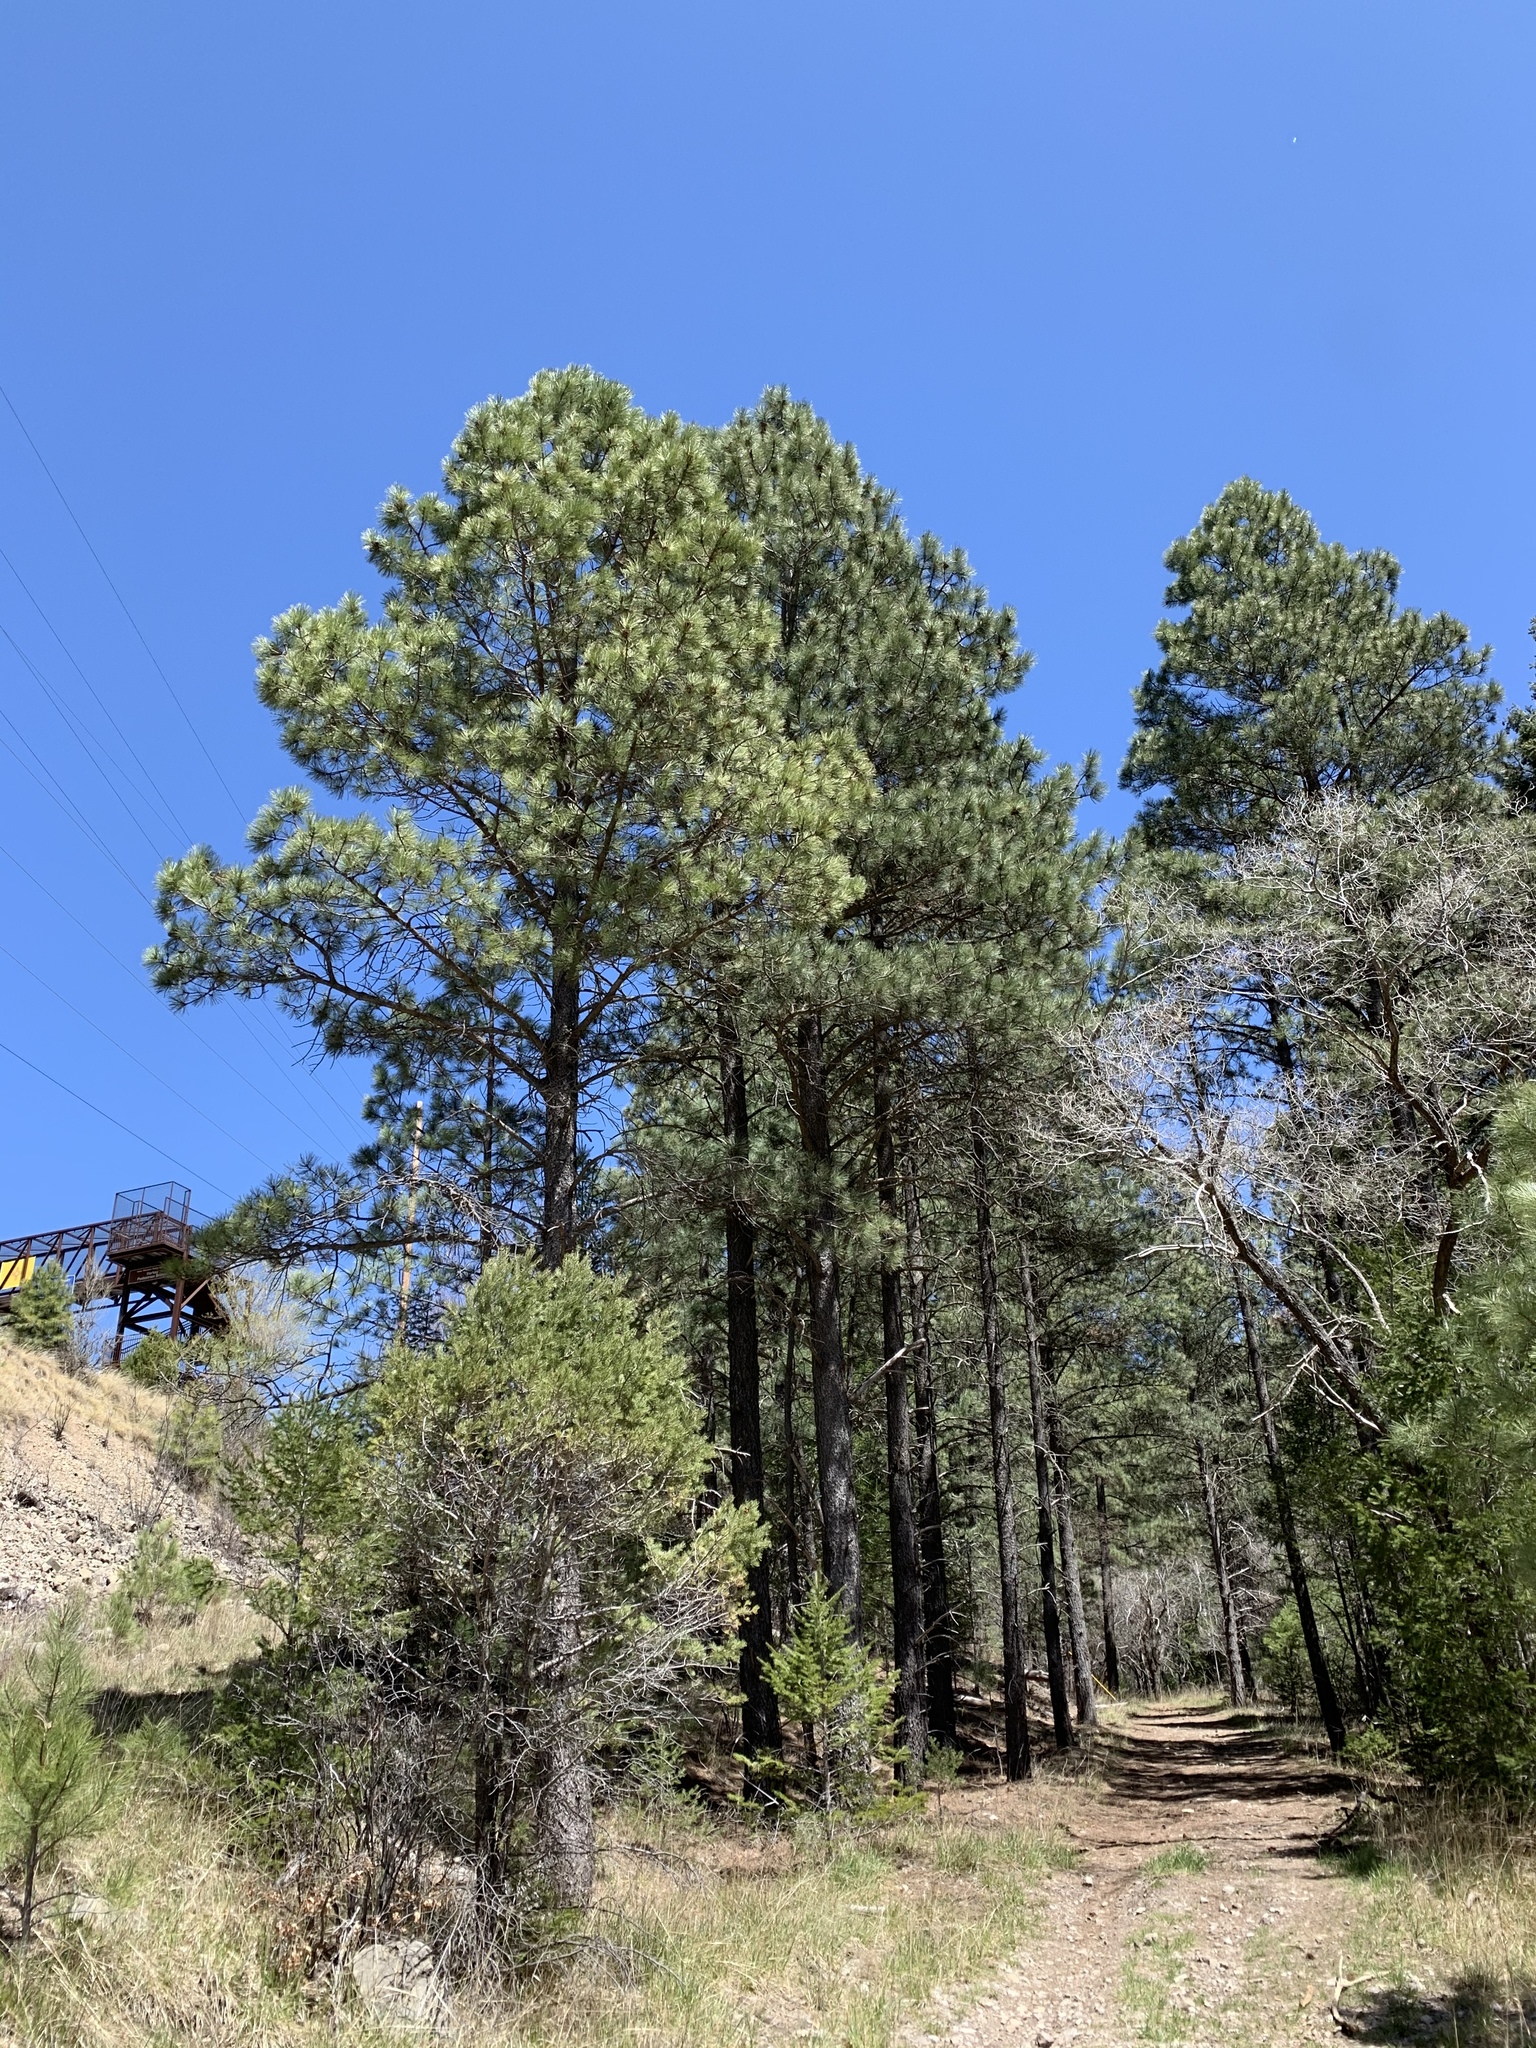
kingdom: Plantae
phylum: Tracheophyta
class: Pinopsida
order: Pinales
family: Pinaceae
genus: Pinus
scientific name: Pinus ponderosa
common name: Western yellow-pine
